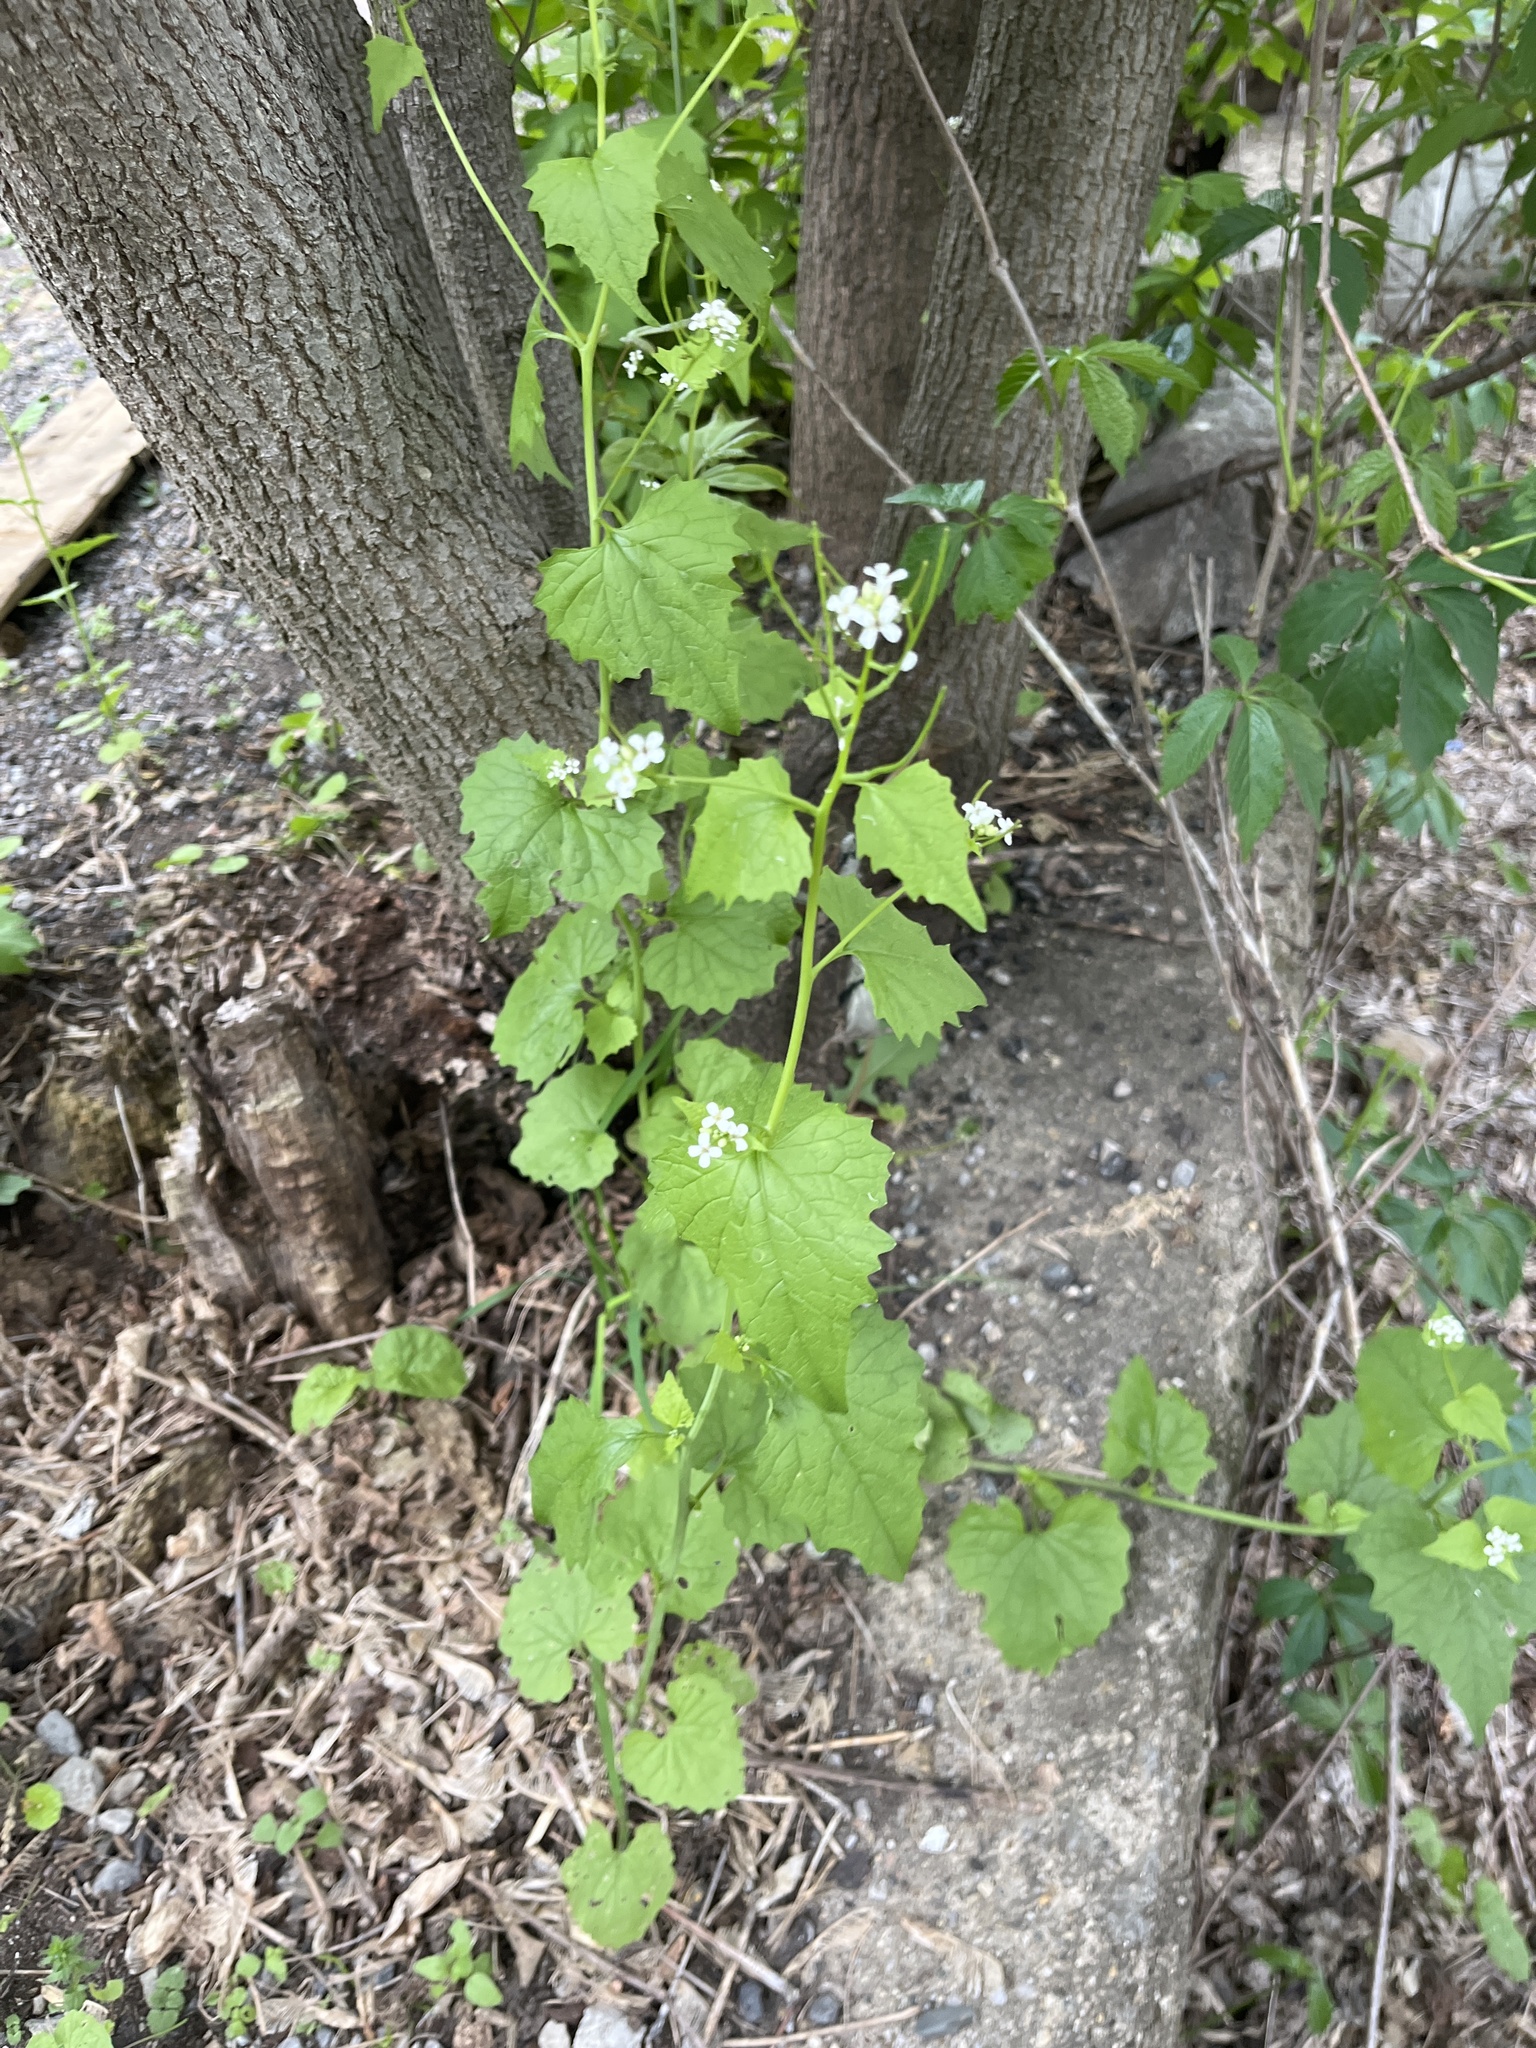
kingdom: Plantae
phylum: Tracheophyta
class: Magnoliopsida
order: Brassicales
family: Brassicaceae
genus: Alliaria
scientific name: Alliaria petiolata
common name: Garlic mustard
